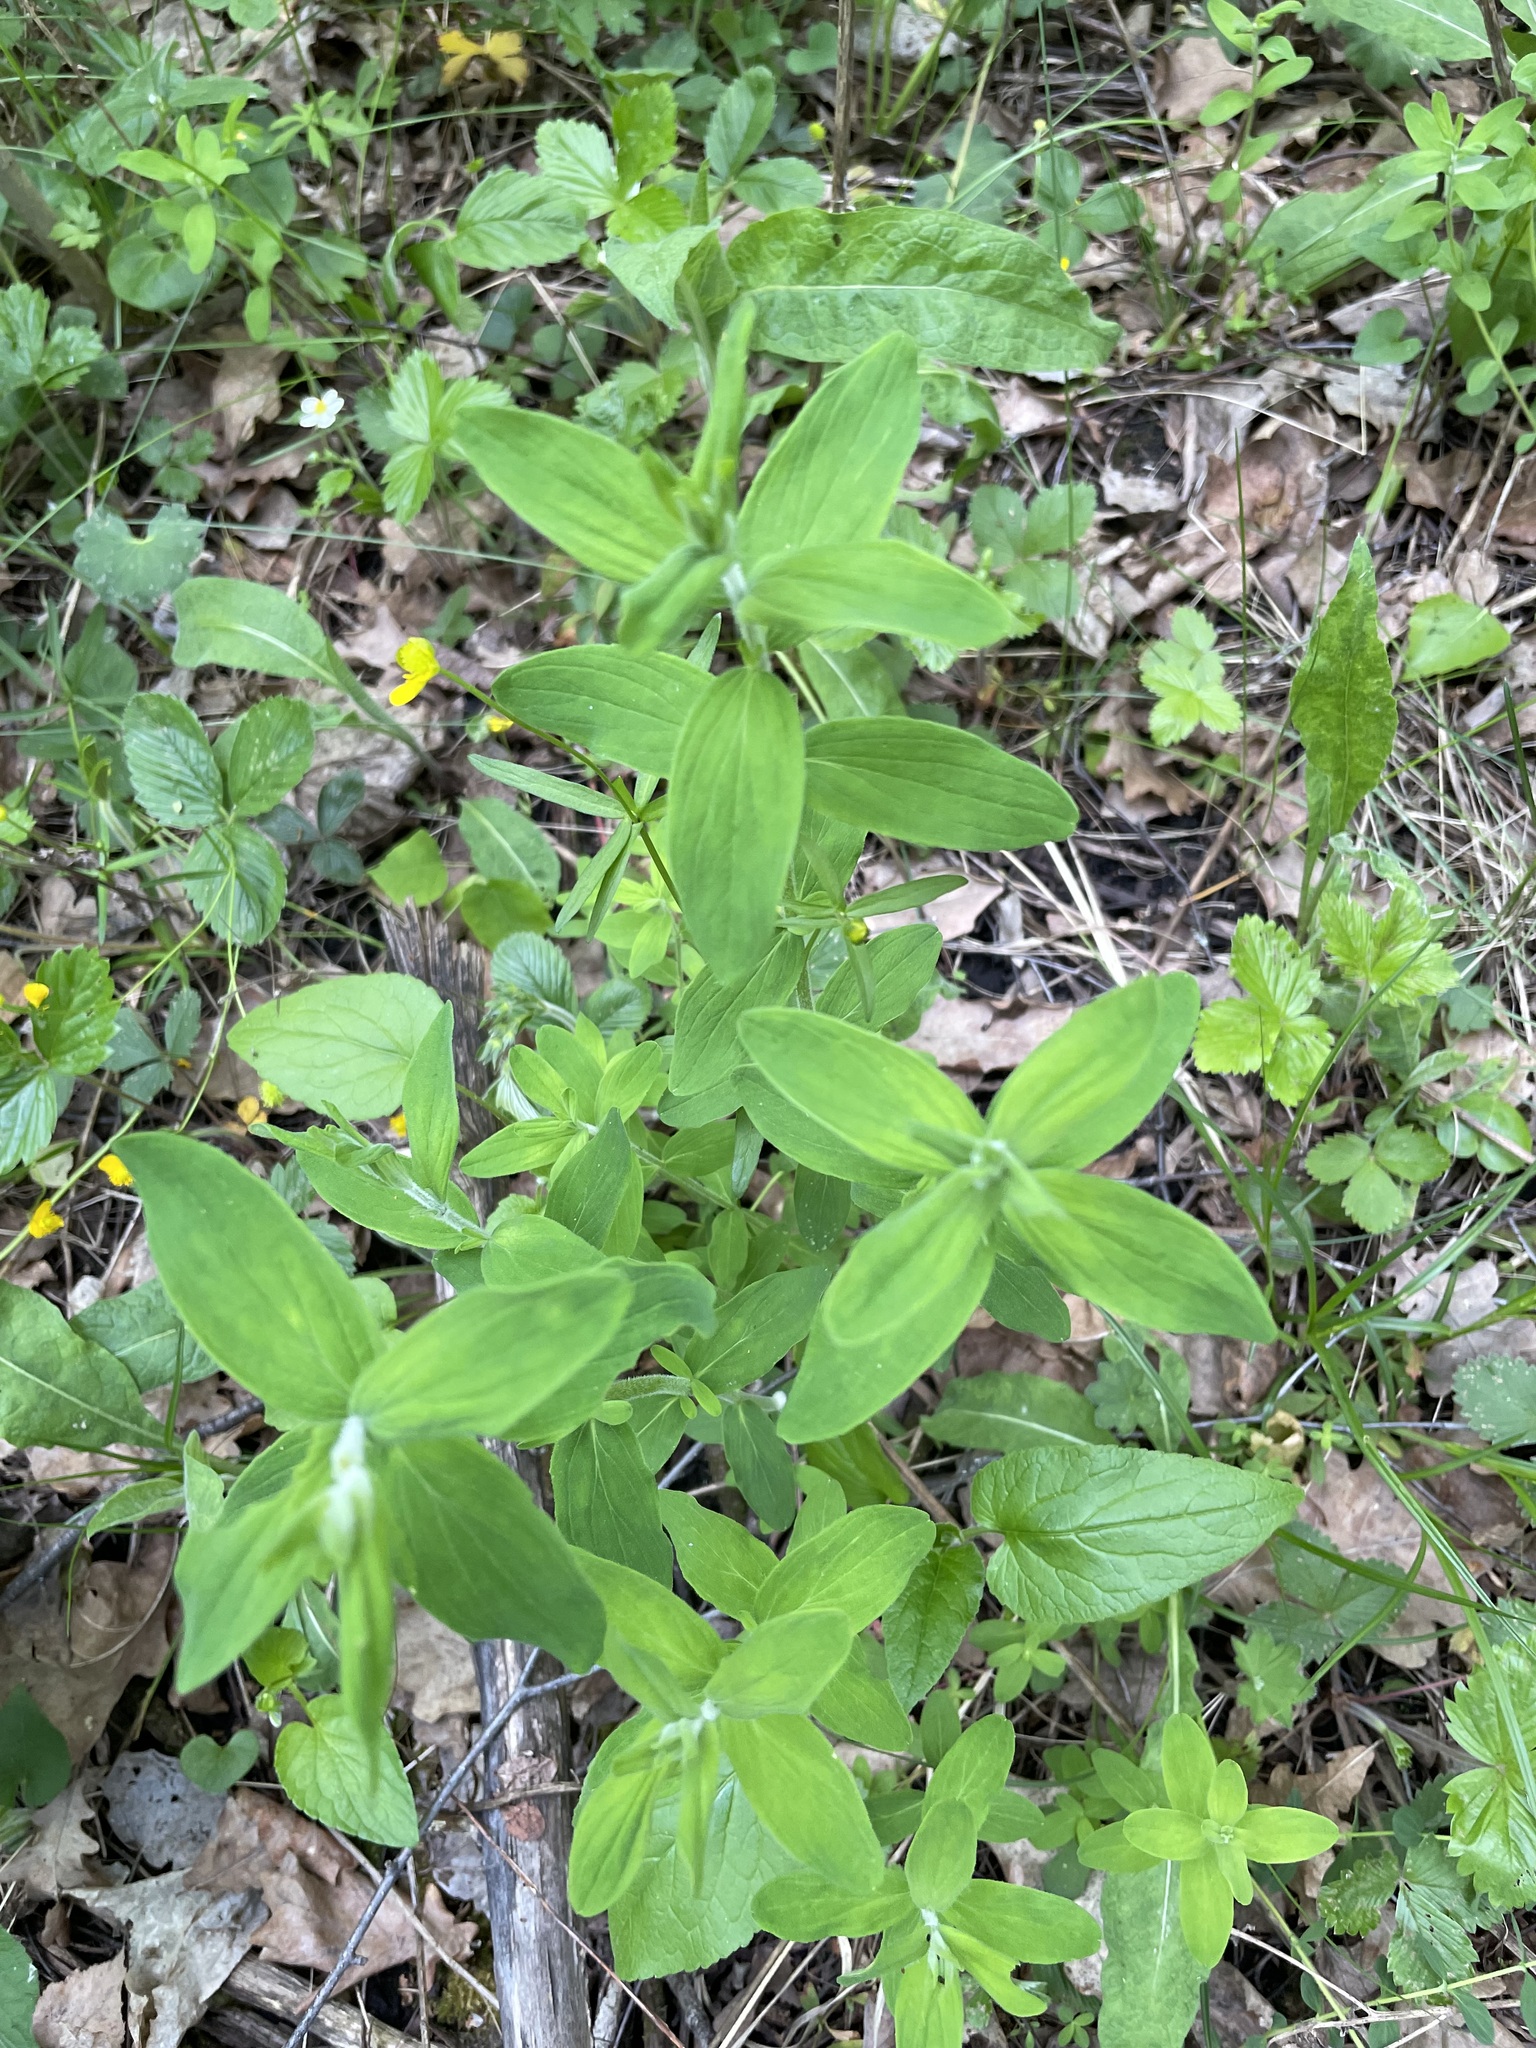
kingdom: Plantae
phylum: Tracheophyta
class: Magnoliopsida
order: Malpighiales
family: Hypericaceae
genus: Hypericum
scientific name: Hypericum hirsutum
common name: Hairy st. john's-wort
